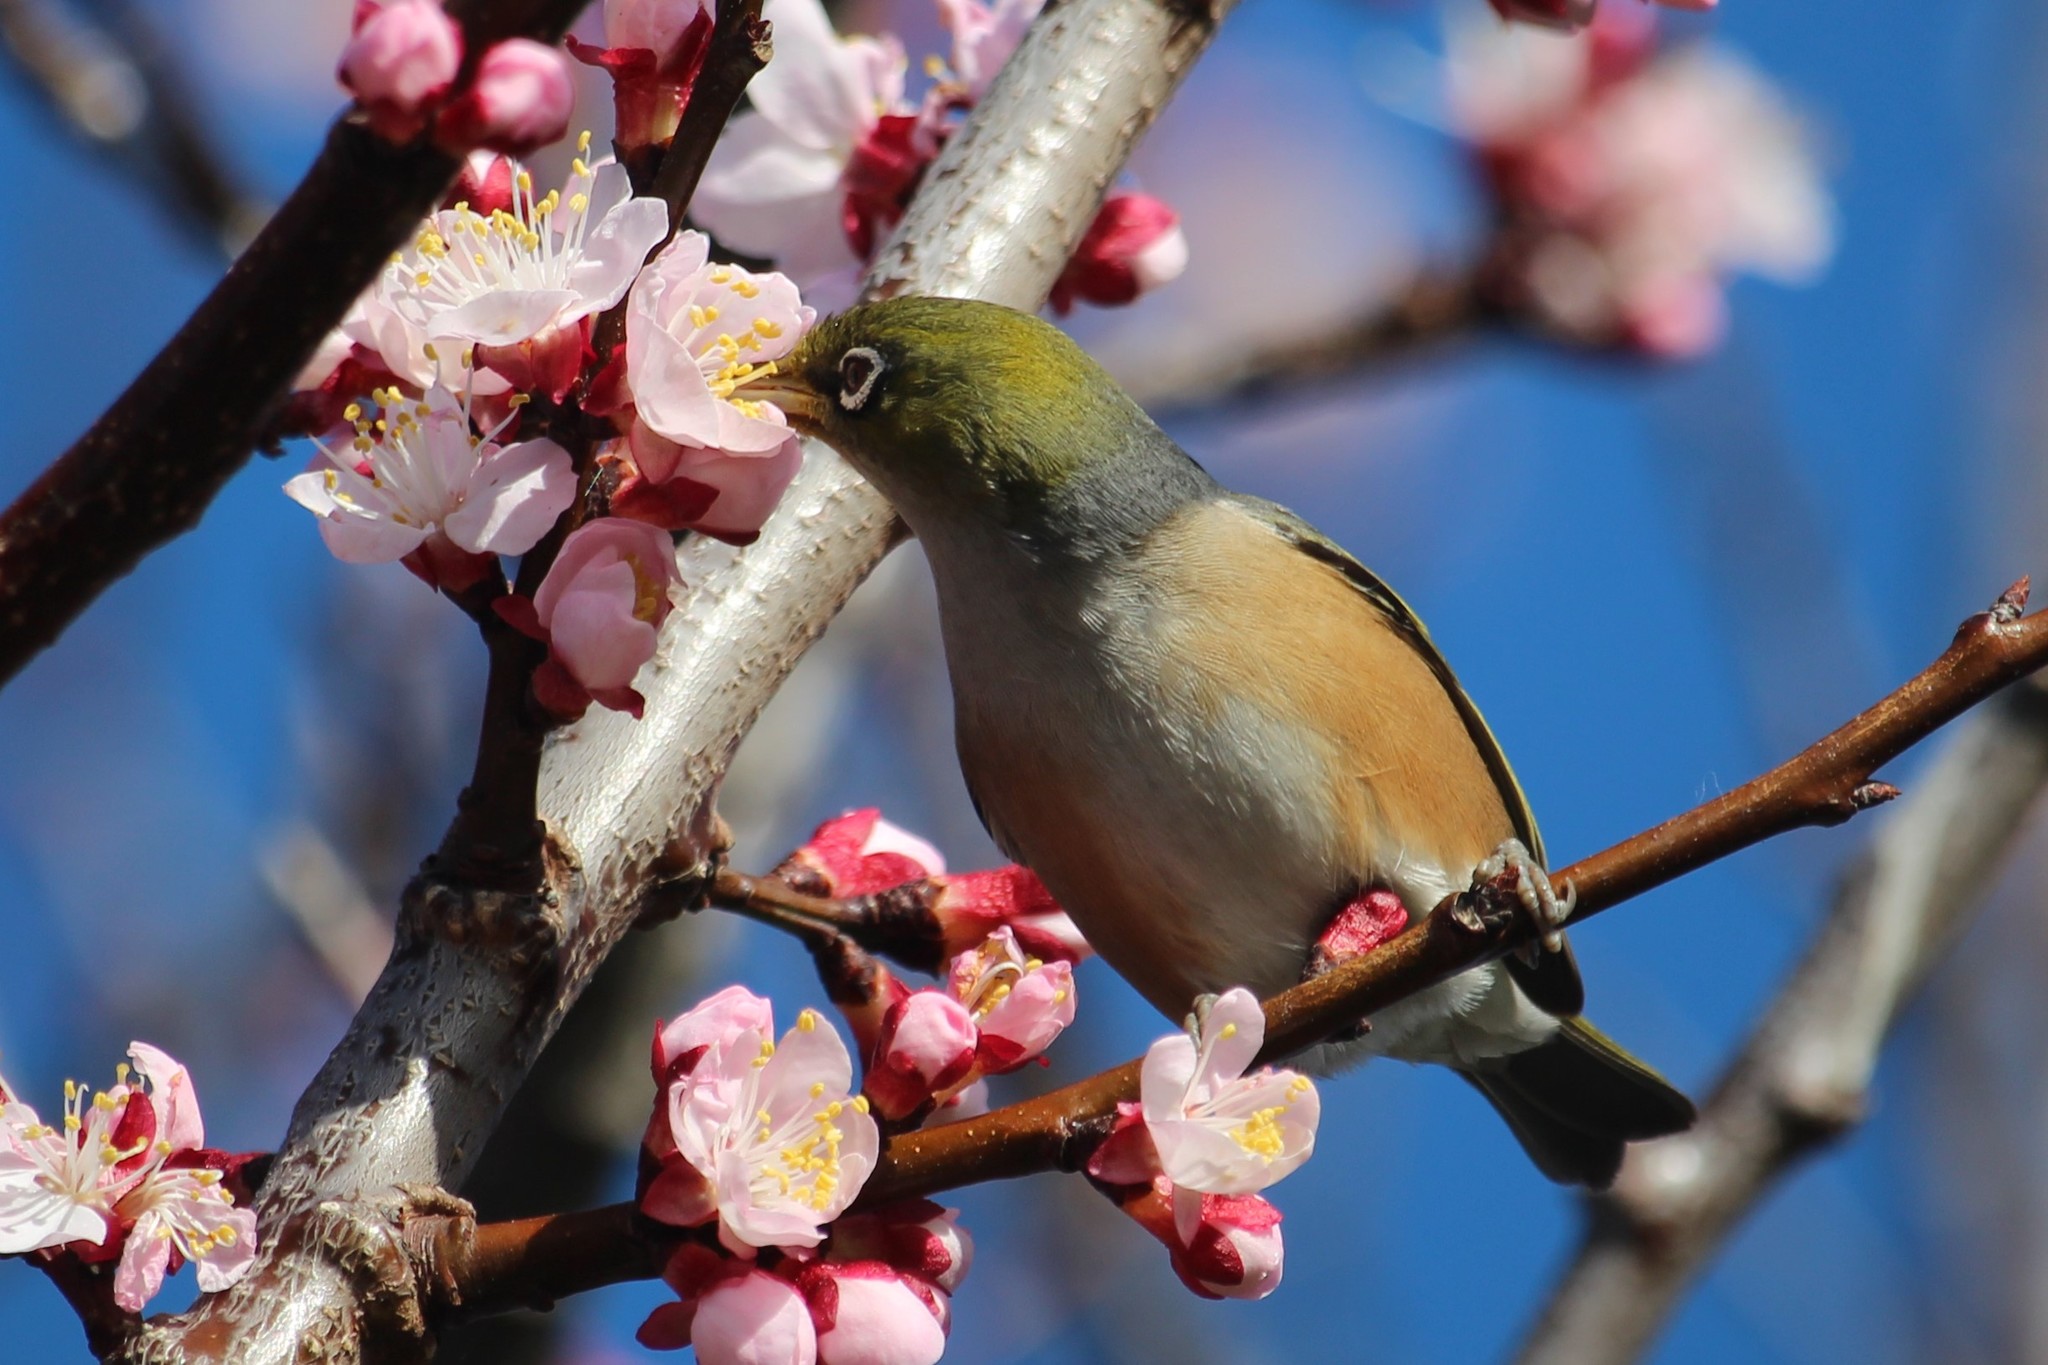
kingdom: Animalia
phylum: Chordata
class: Aves
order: Passeriformes
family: Zosteropidae
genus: Zosterops
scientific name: Zosterops lateralis
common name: Silvereye
